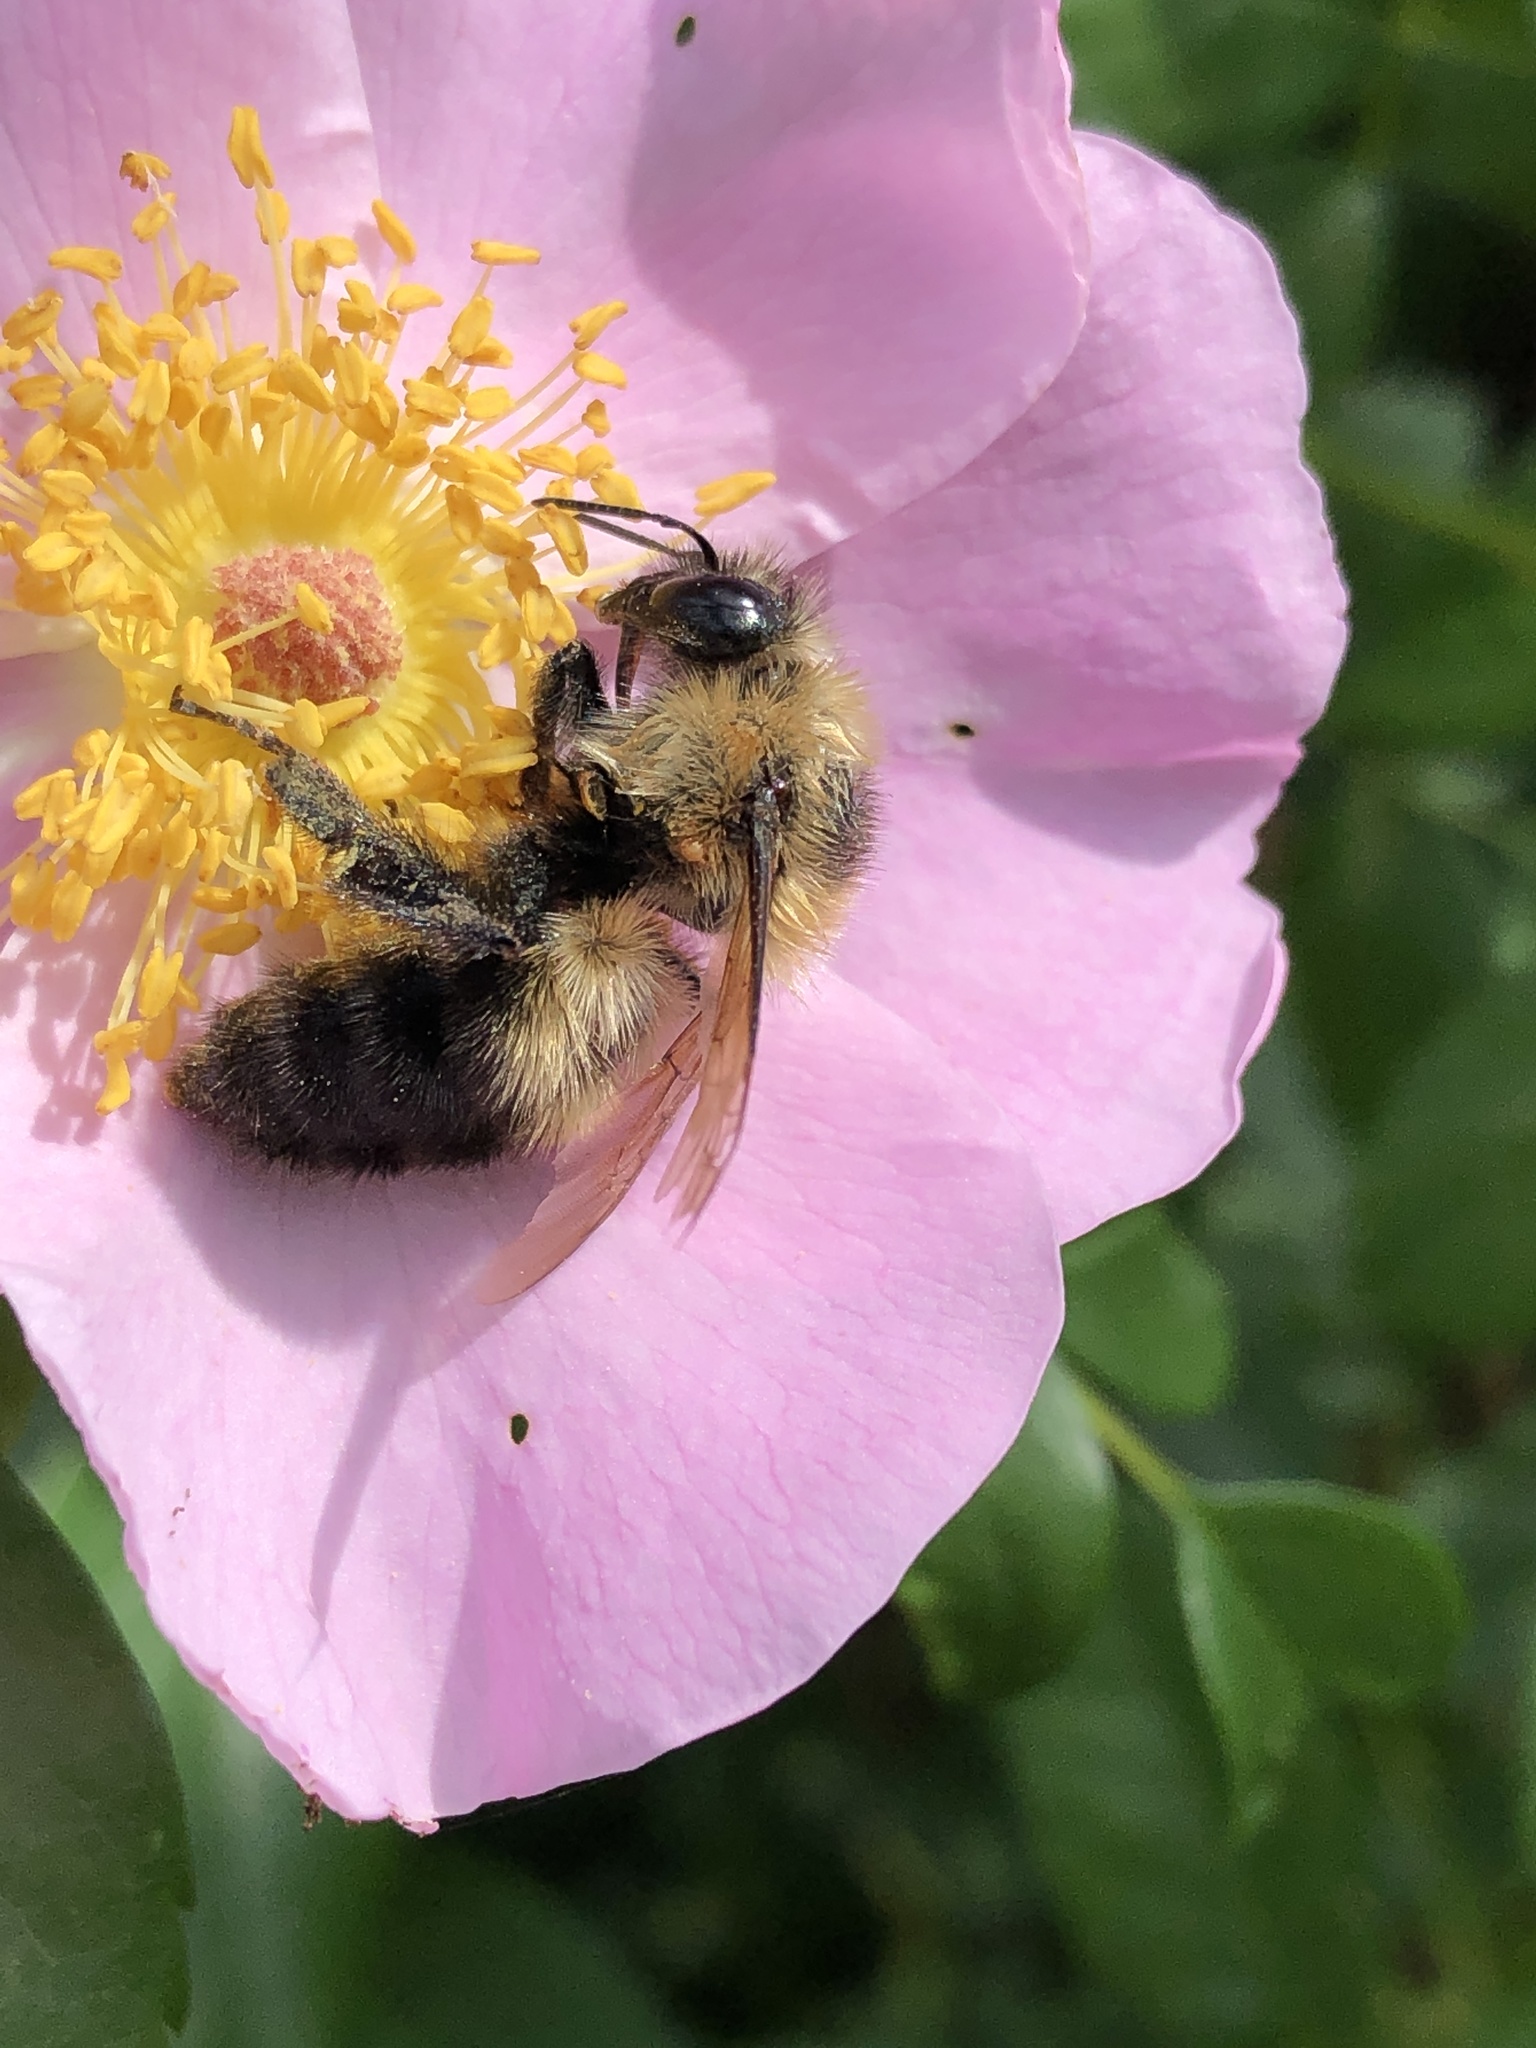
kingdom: Animalia
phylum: Arthropoda
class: Insecta
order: Hymenoptera
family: Apidae
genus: Bombus
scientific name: Bombus rufocinctus
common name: Red-belted bumble bee
